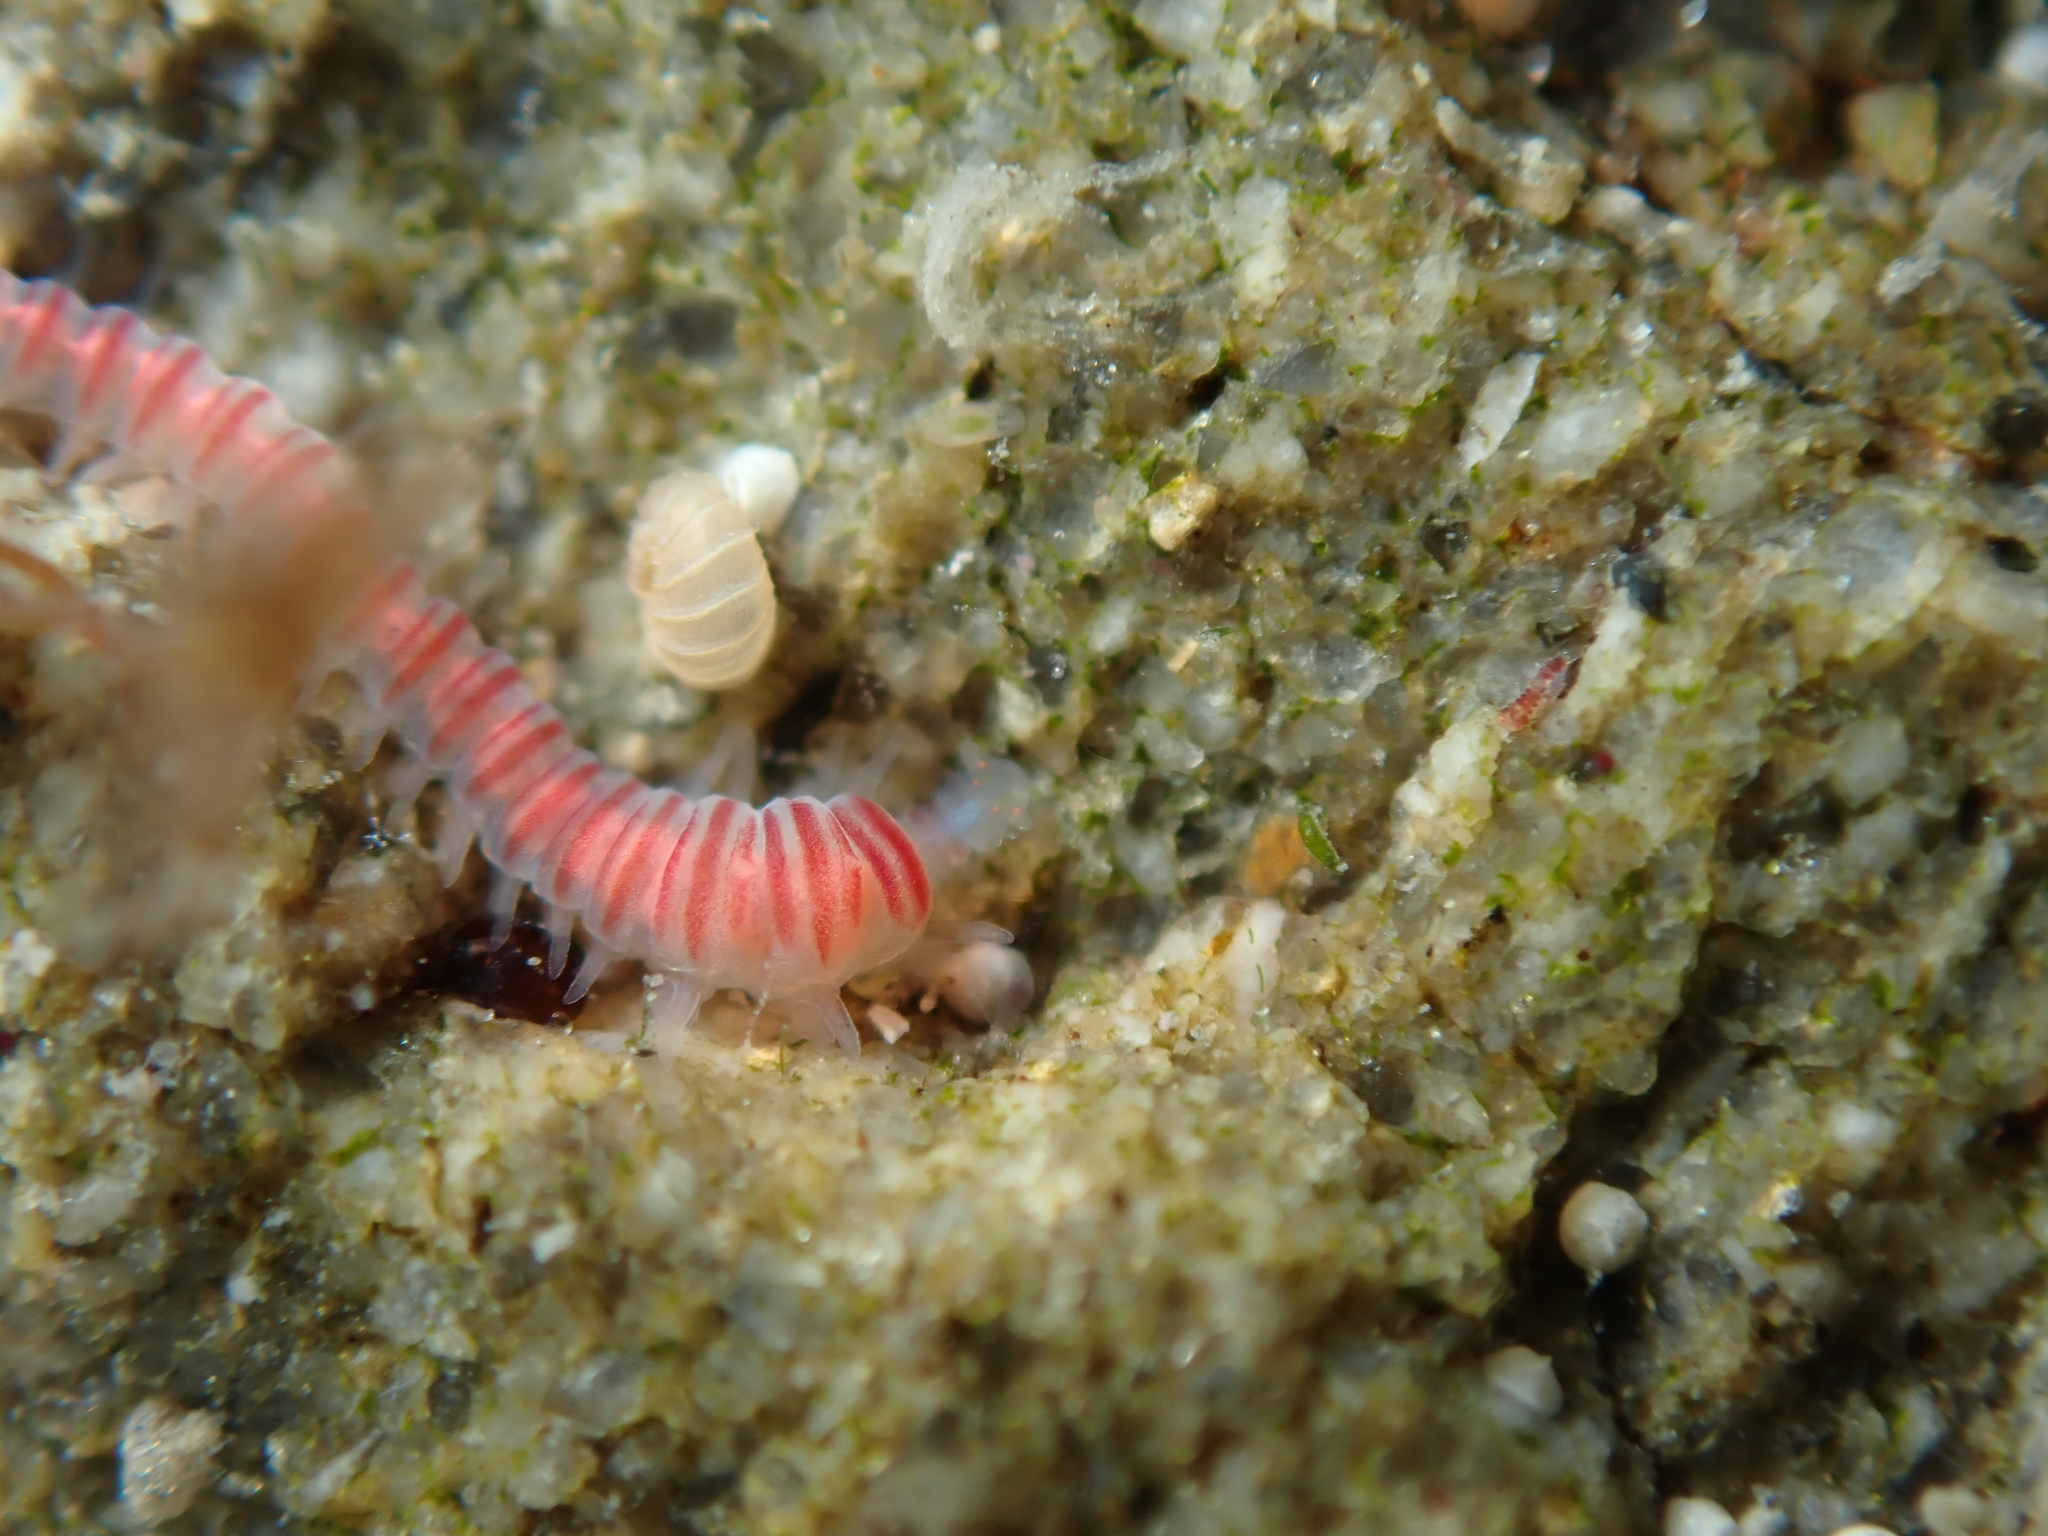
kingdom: Animalia
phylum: Annelida
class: Polychaeta
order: Eunicida
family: Dorvilleidae
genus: Dorvillea
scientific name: Dorvillea australiensis
